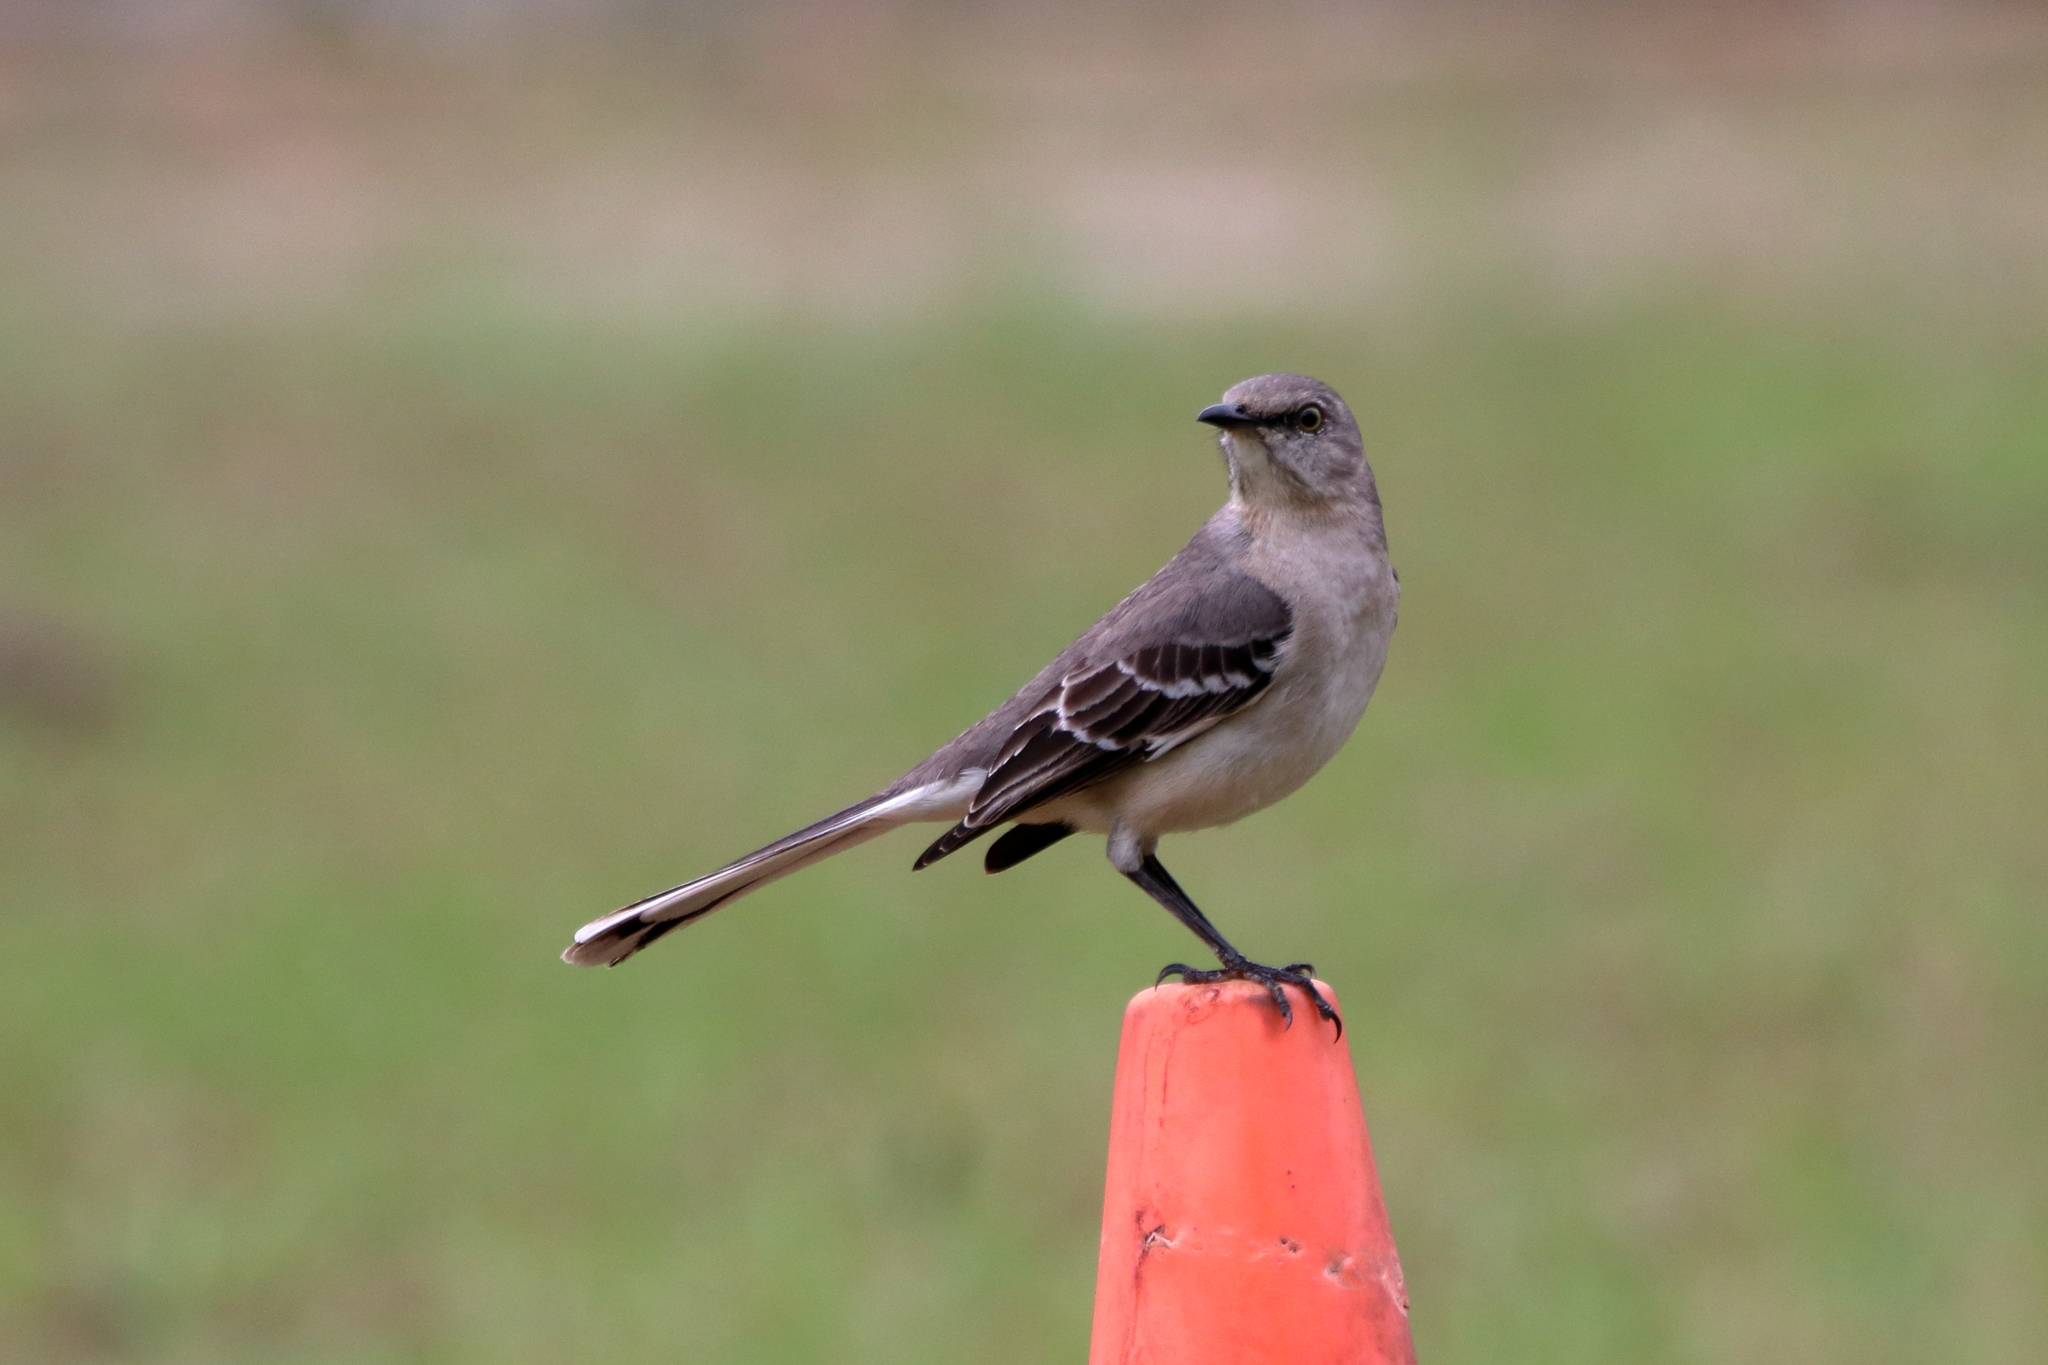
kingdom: Animalia
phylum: Chordata
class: Aves
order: Passeriformes
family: Mimidae
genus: Mimus
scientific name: Mimus polyglottos
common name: Northern mockingbird
